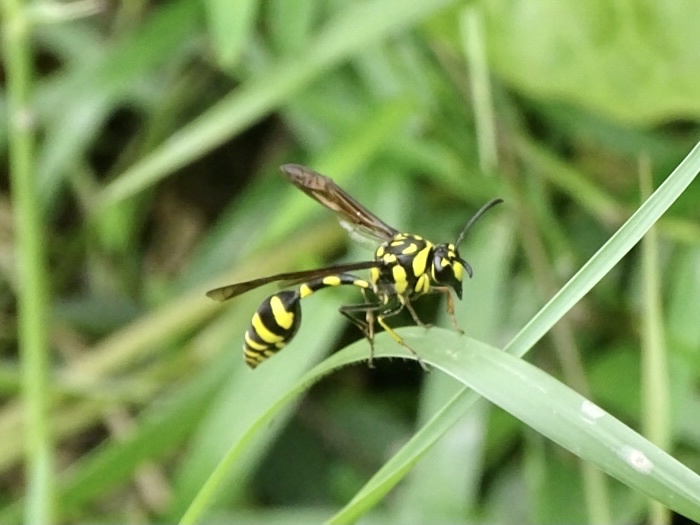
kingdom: Animalia
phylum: Arthropoda
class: Insecta
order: Hymenoptera
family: Eumenidae
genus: Phimenes
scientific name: Phimenes flavopictus
